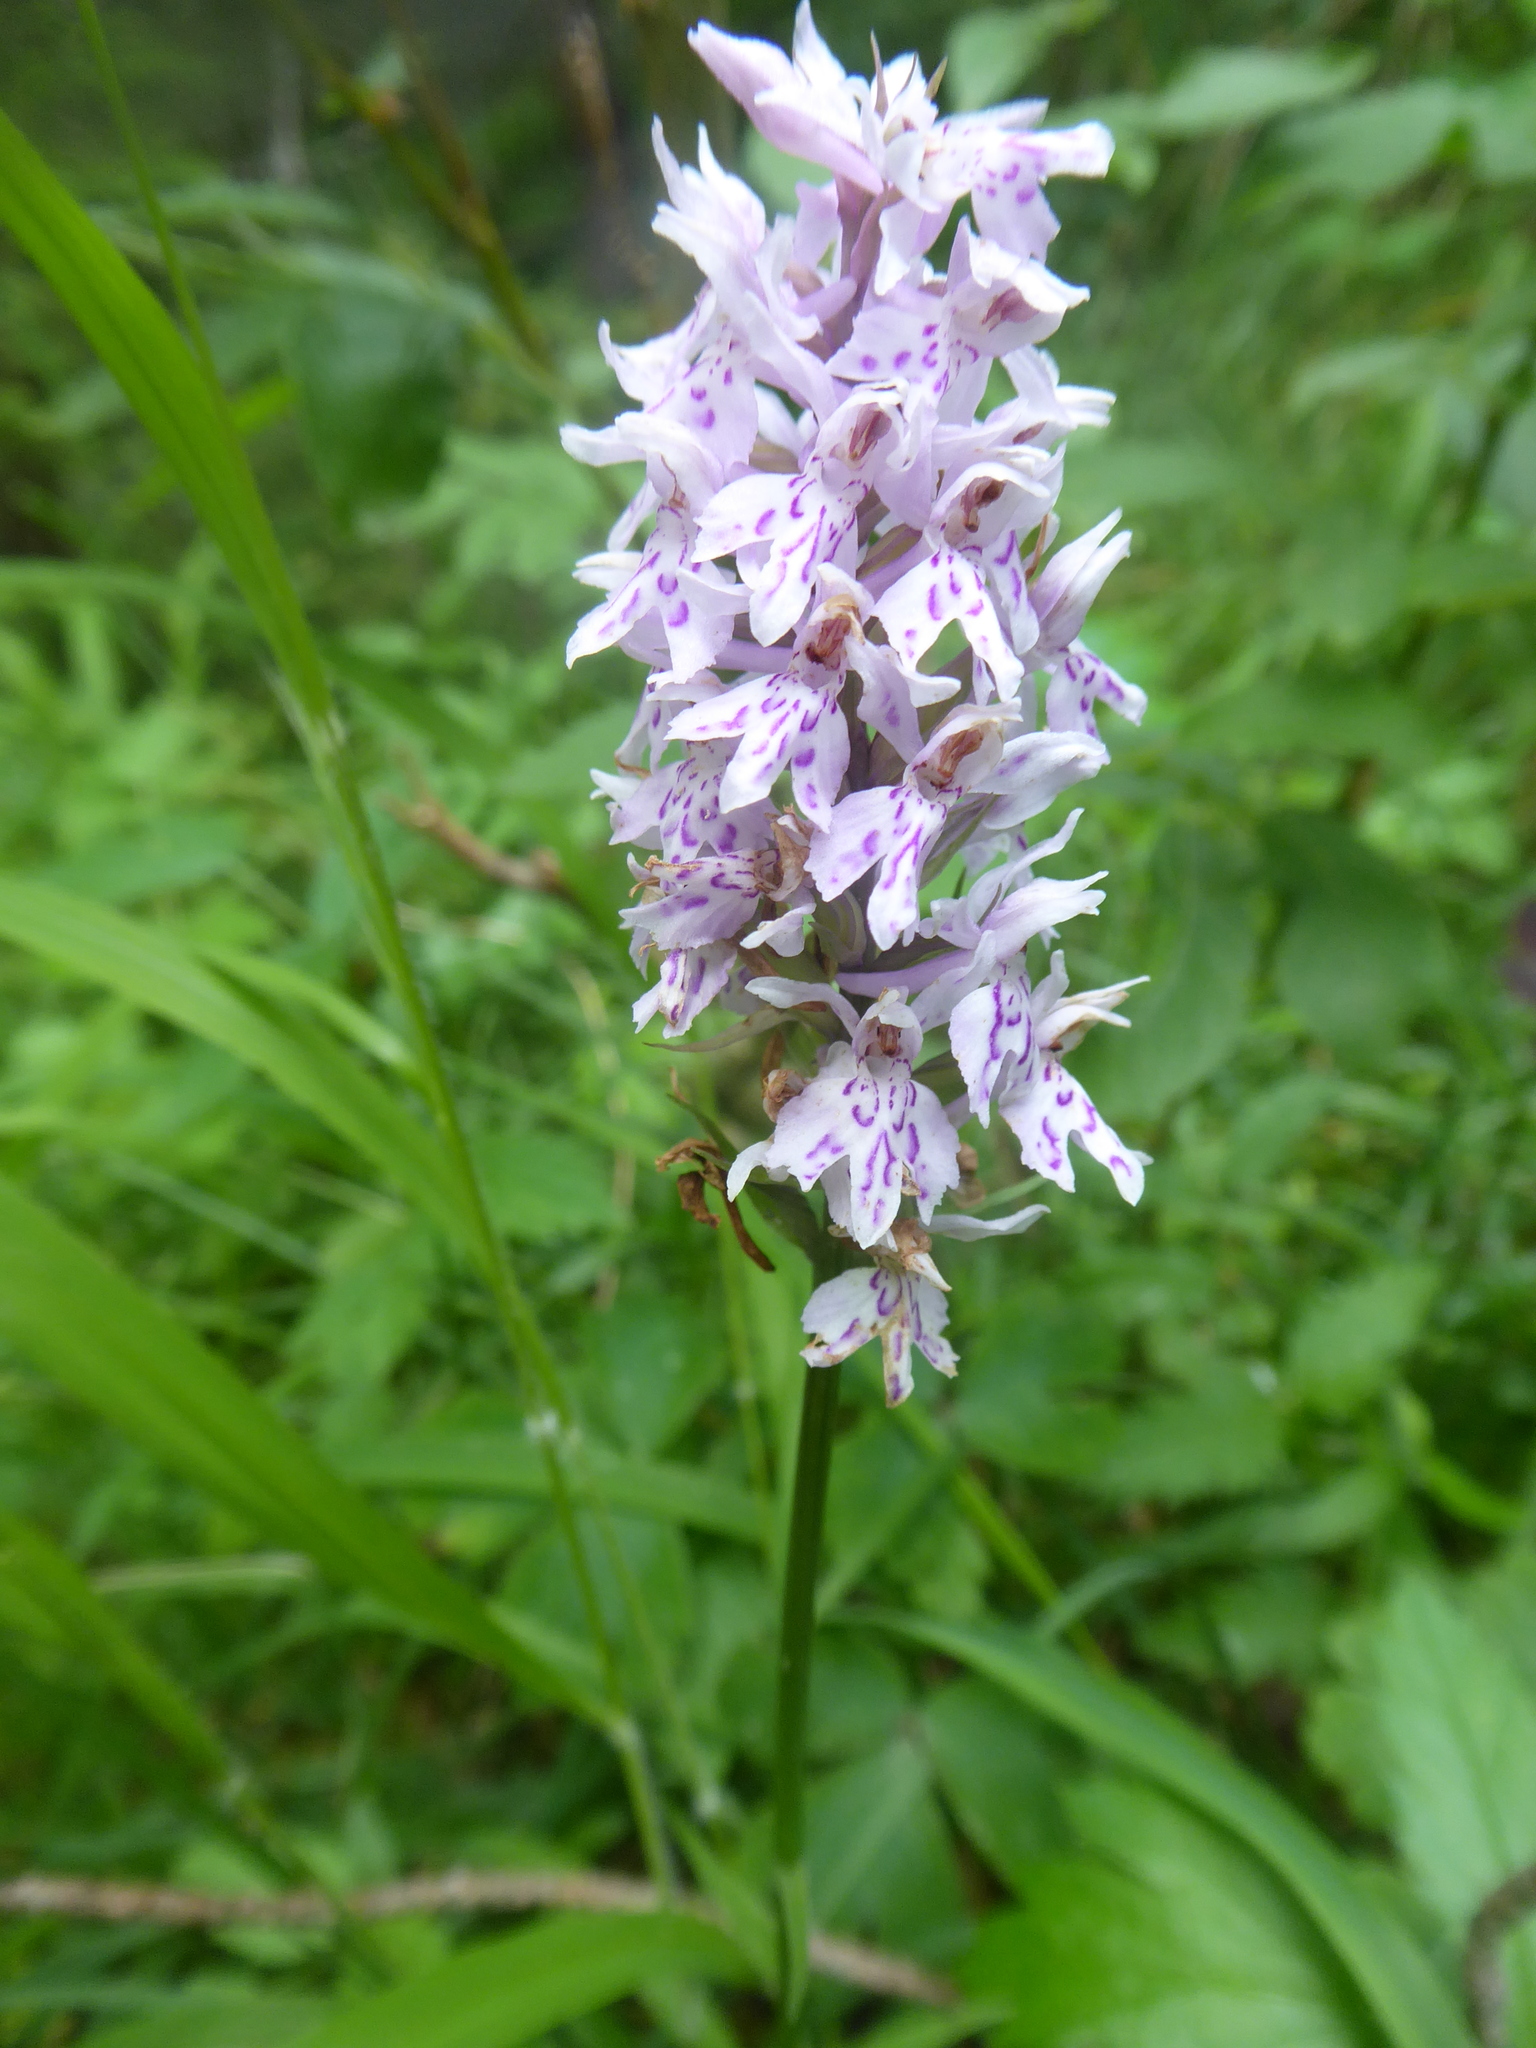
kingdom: Plantae
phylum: Tracheophyta
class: Liliopsida
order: Asparagales
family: Orchidaceae
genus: Dactylorhiza
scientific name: Dactylorhiza maculata
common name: Heath spotted-orchid
